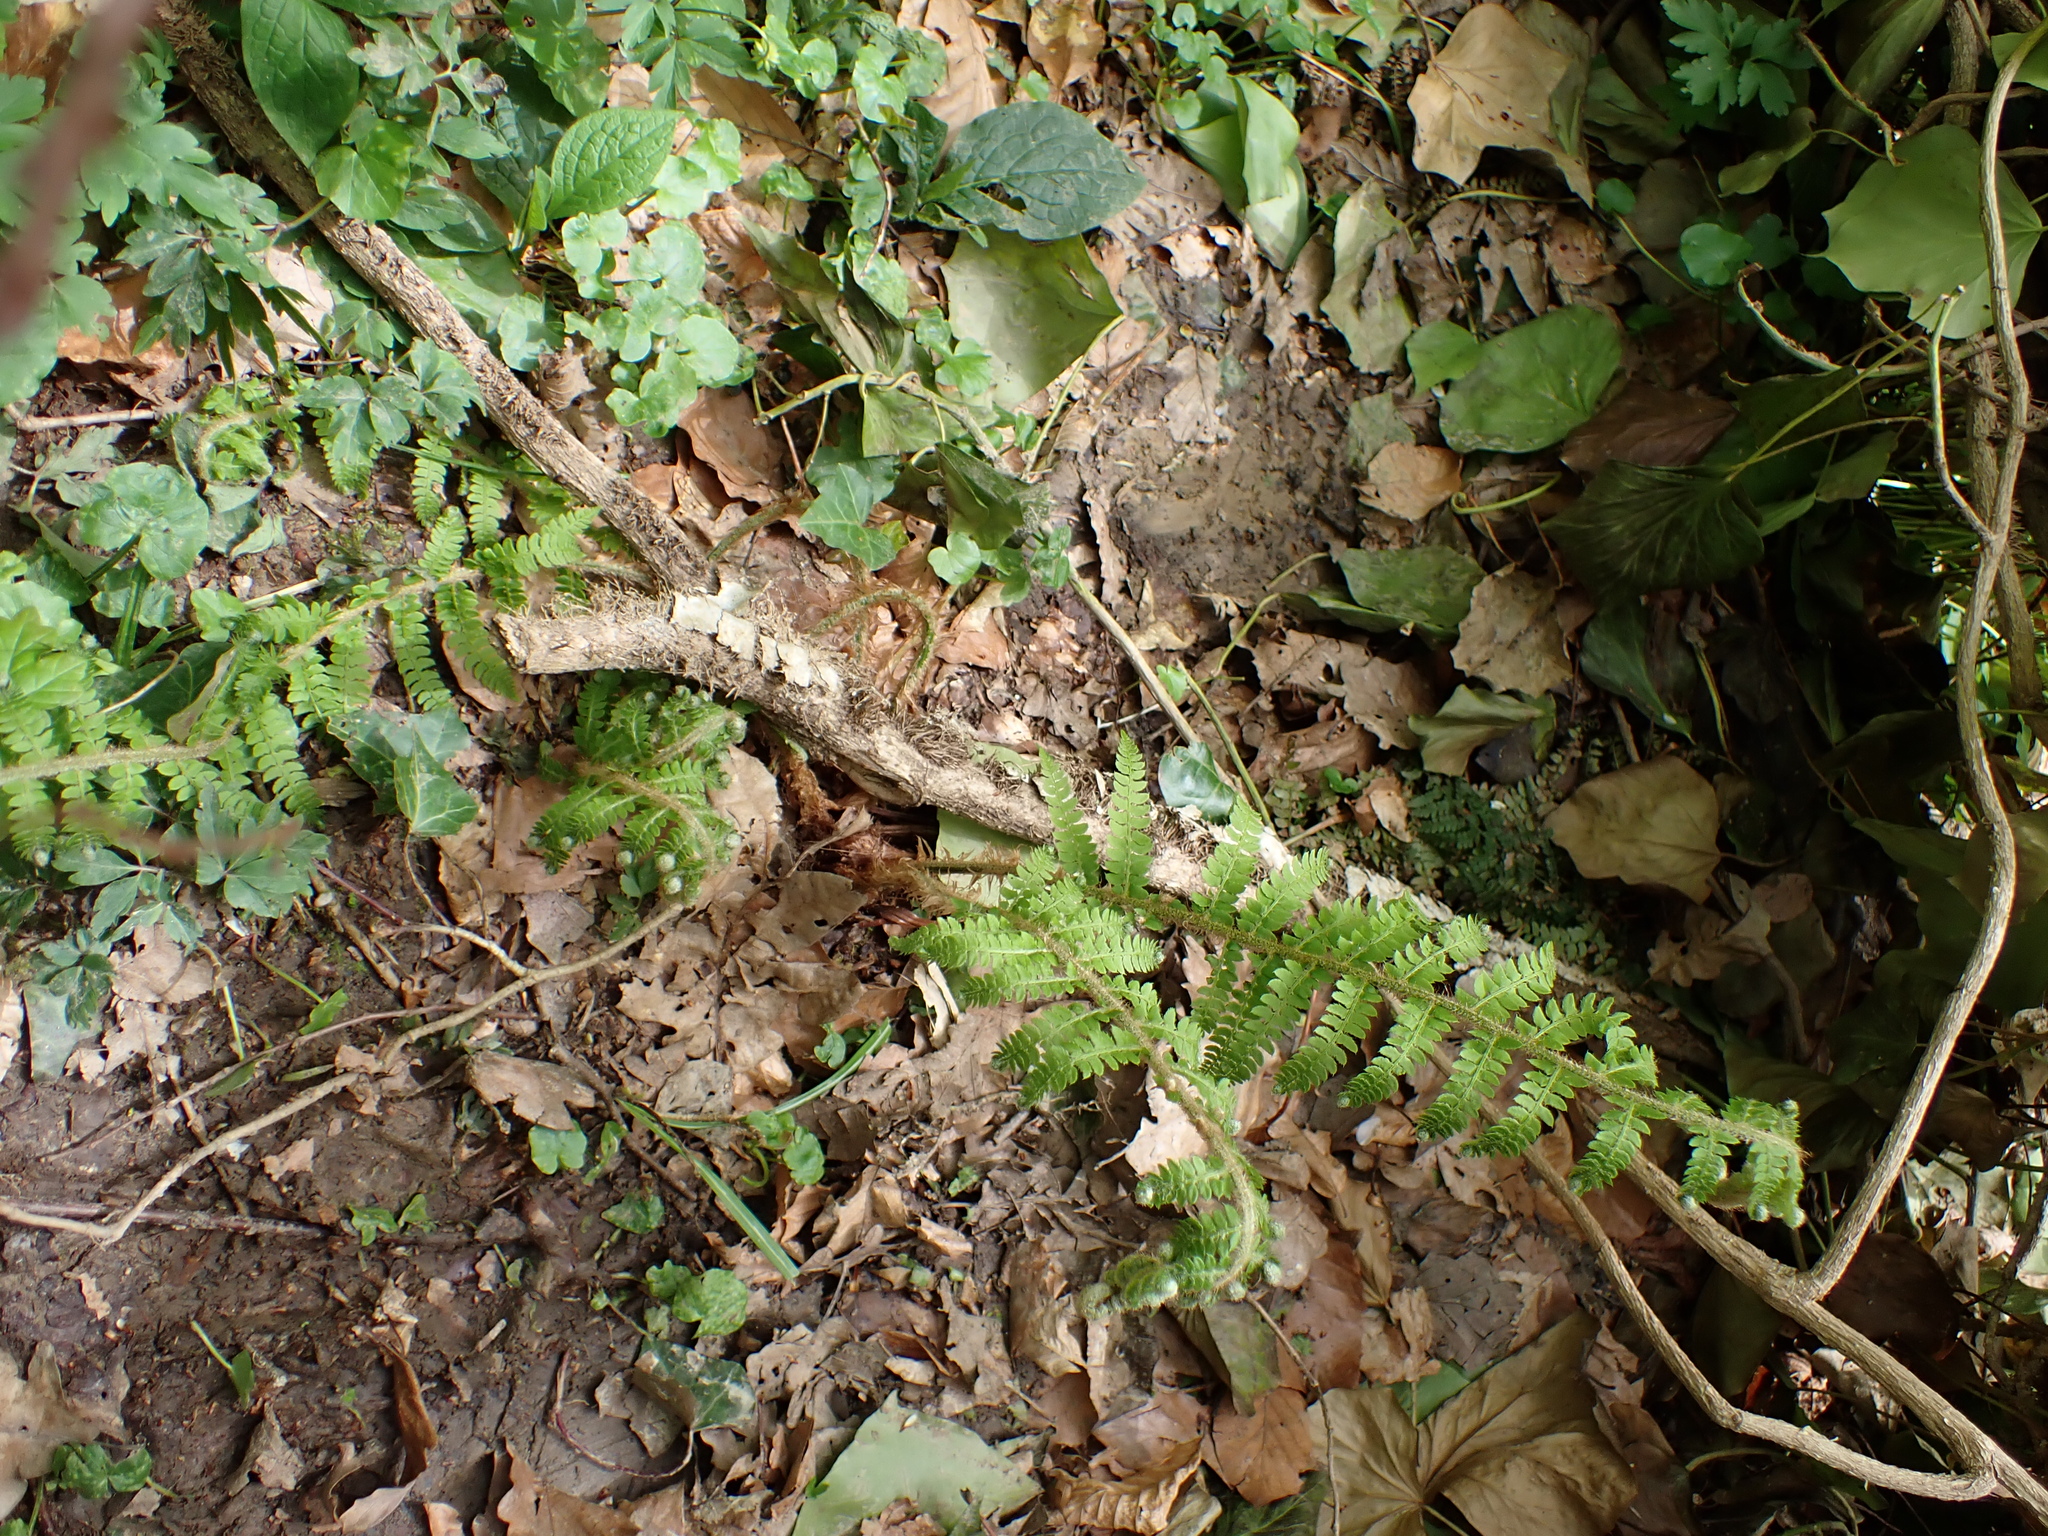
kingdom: Plantae
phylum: Tracheophyta
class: Polypodiopsida
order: Polypodiales
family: Dryopteridaceae
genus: Polystichum
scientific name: Polystichum setiferum
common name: Soft shield-fern
